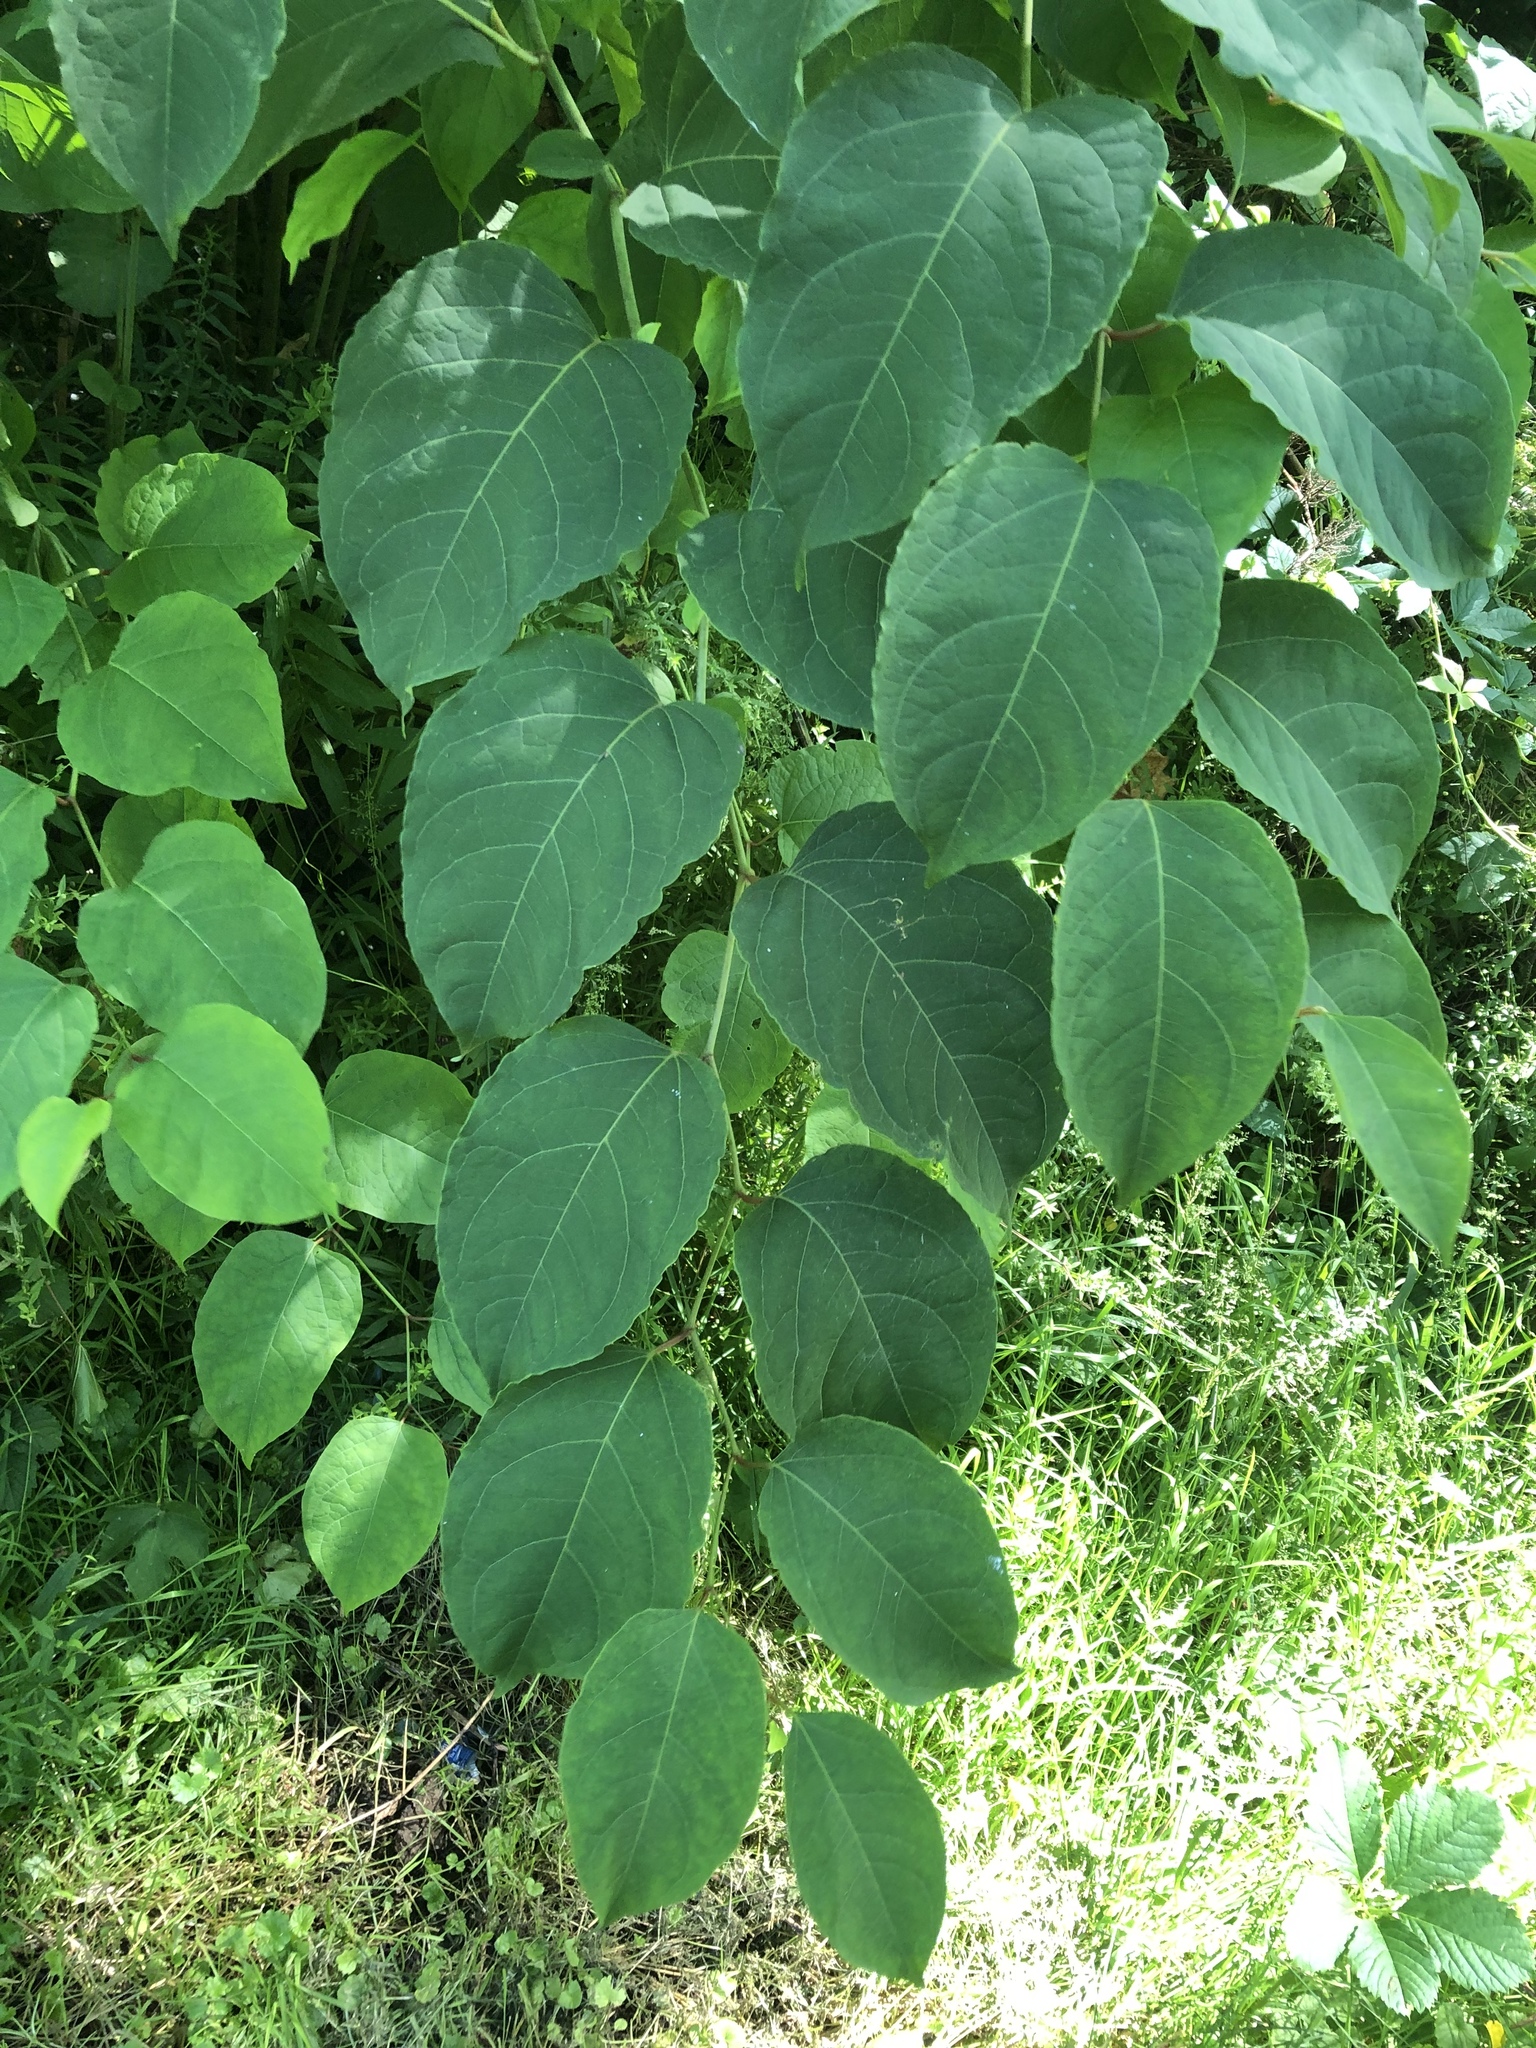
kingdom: Plantae
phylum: Tracheophyta
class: Magnoliopsida
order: Caryophyllales
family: Polygonaceae
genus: Reynoutria
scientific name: Reynoutria japonica
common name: Japanese knotweed
